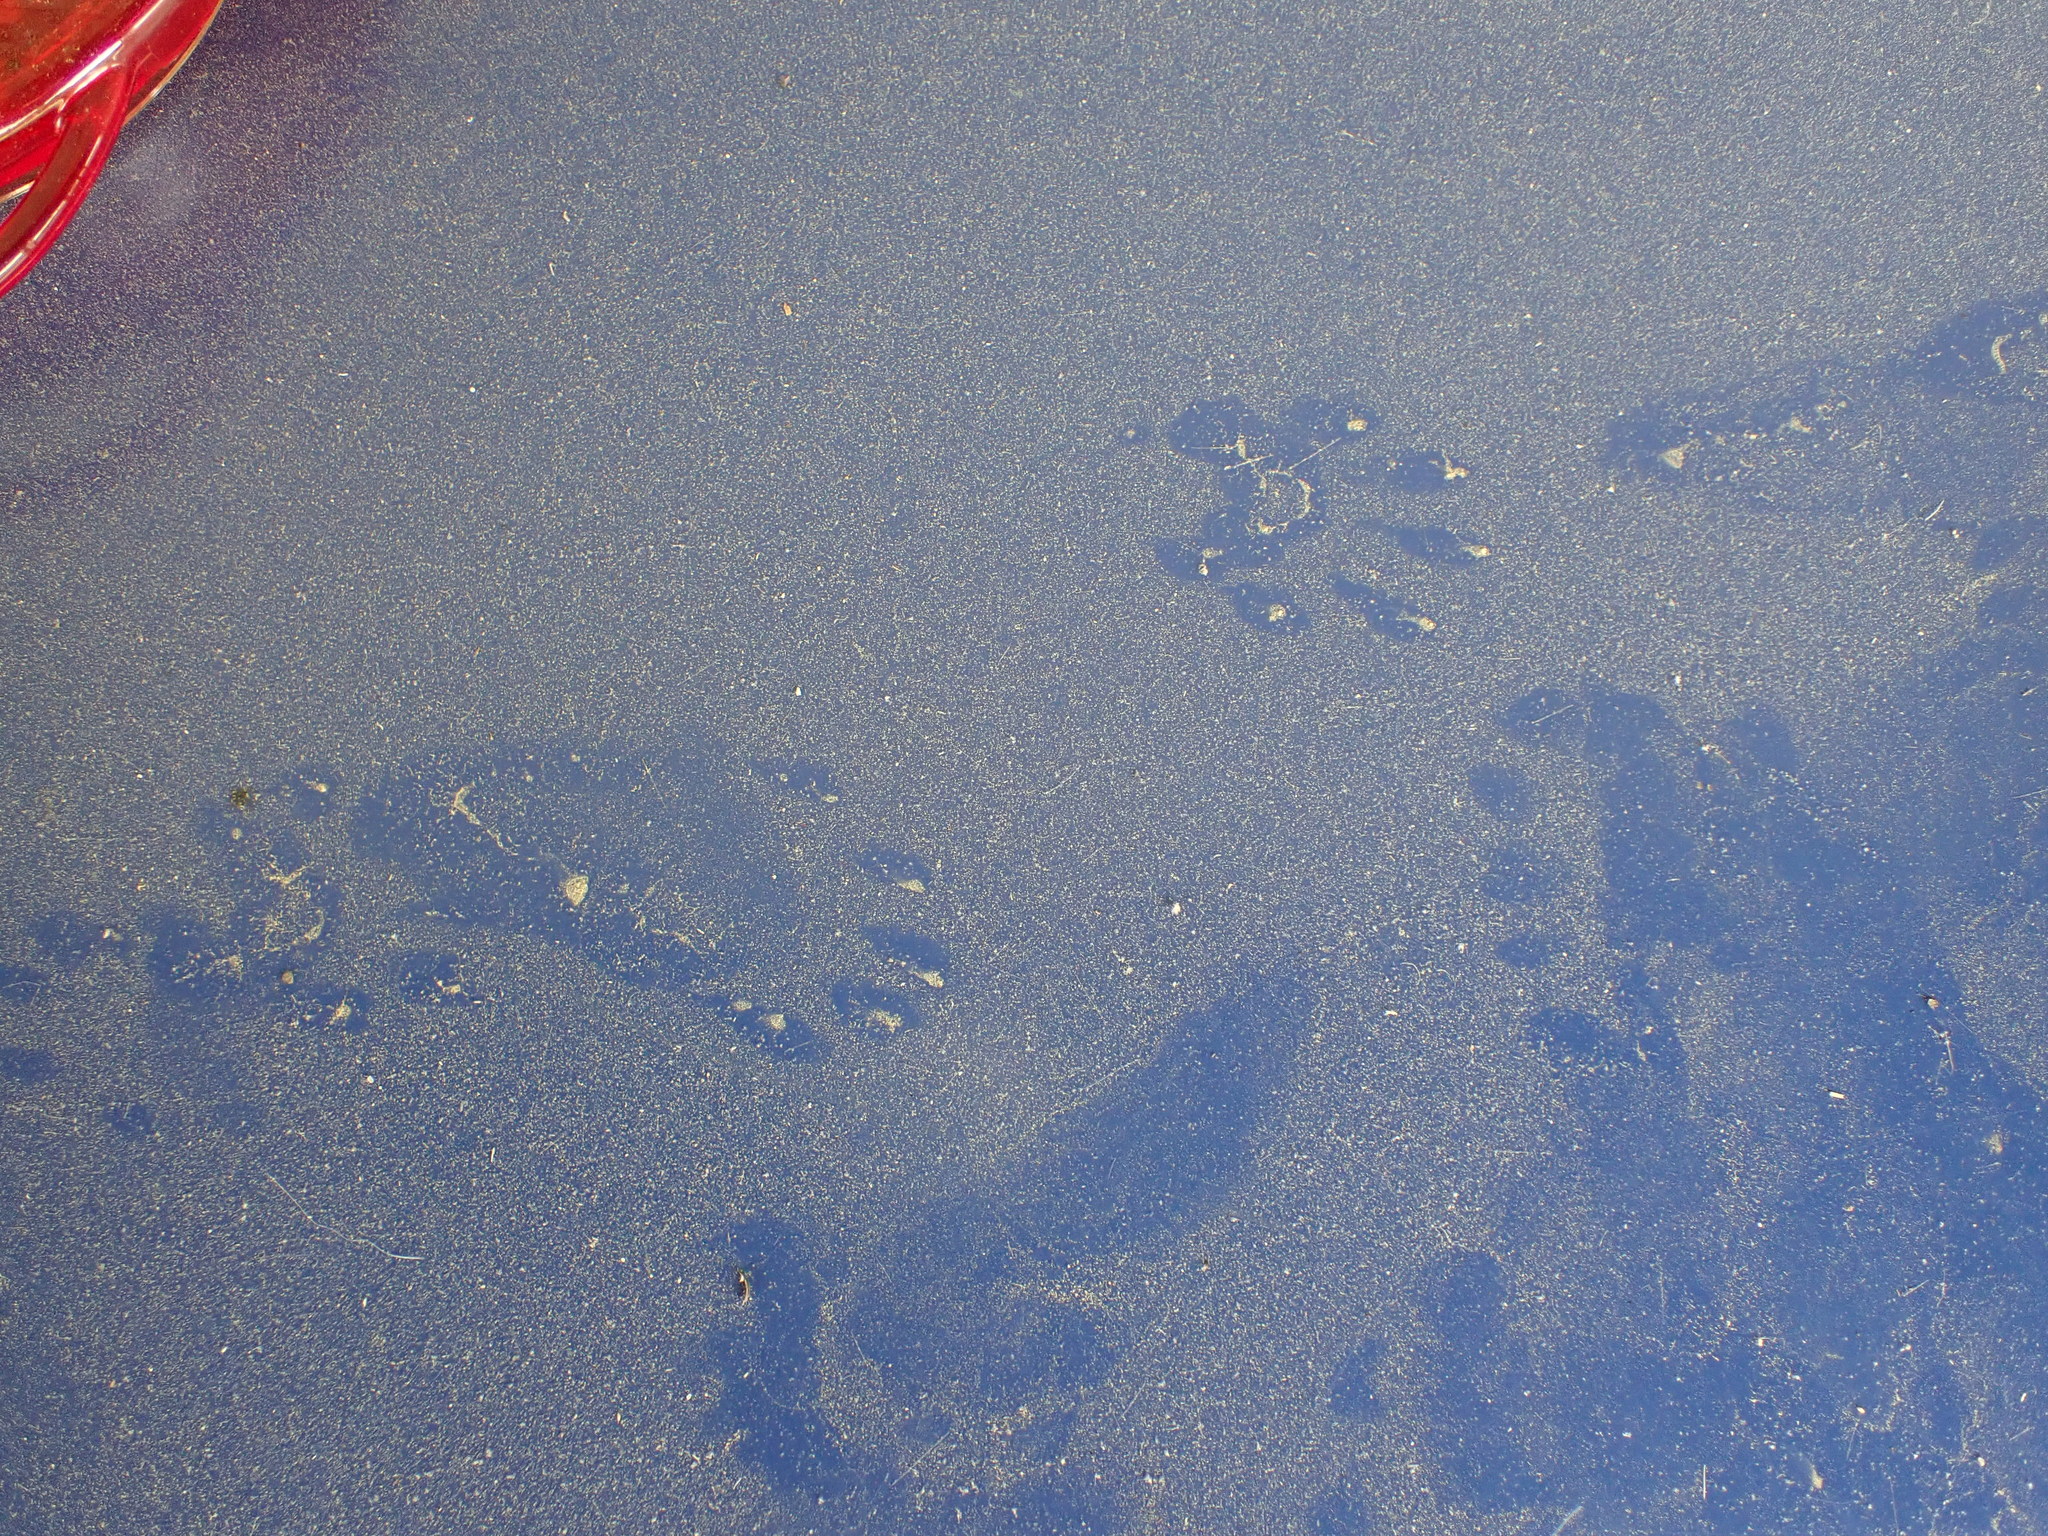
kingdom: Animalia
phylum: Chordata
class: Mammalia
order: Carnivora
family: Procyonidae
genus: Procyon
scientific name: Procyon lotor
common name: Raccoon
